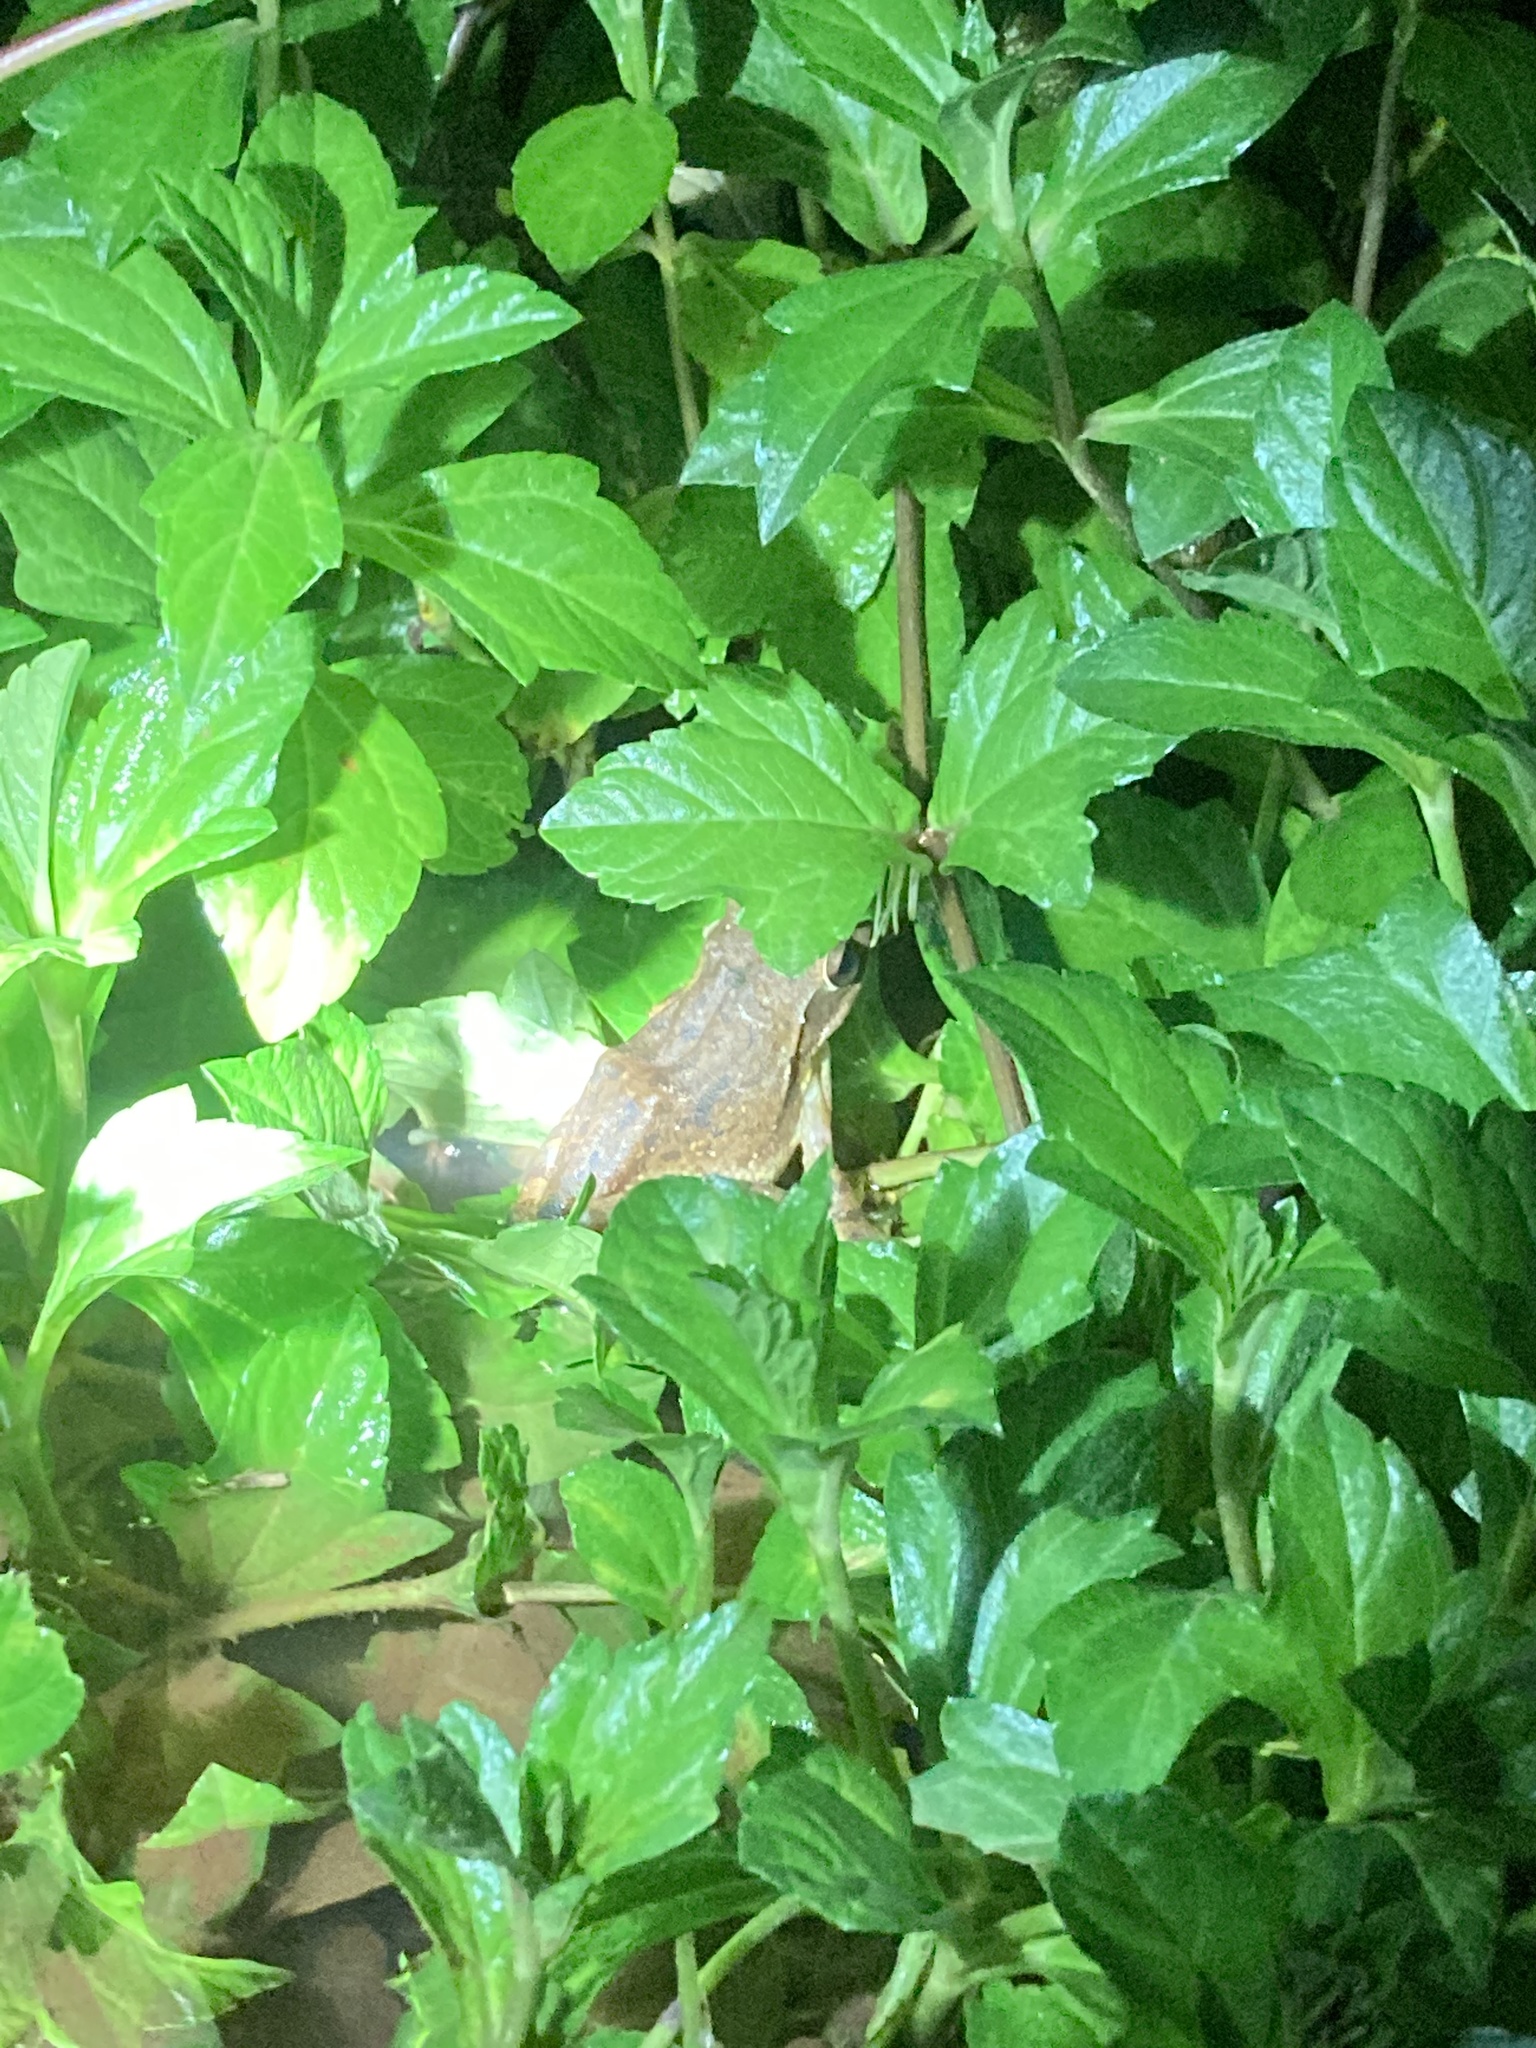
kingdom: Animalia
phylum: Chordata
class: Amphibia
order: Anura
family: Rhacophoridae
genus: Polypedates
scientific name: Polypedates maculatus
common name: Himalayan tree frog
